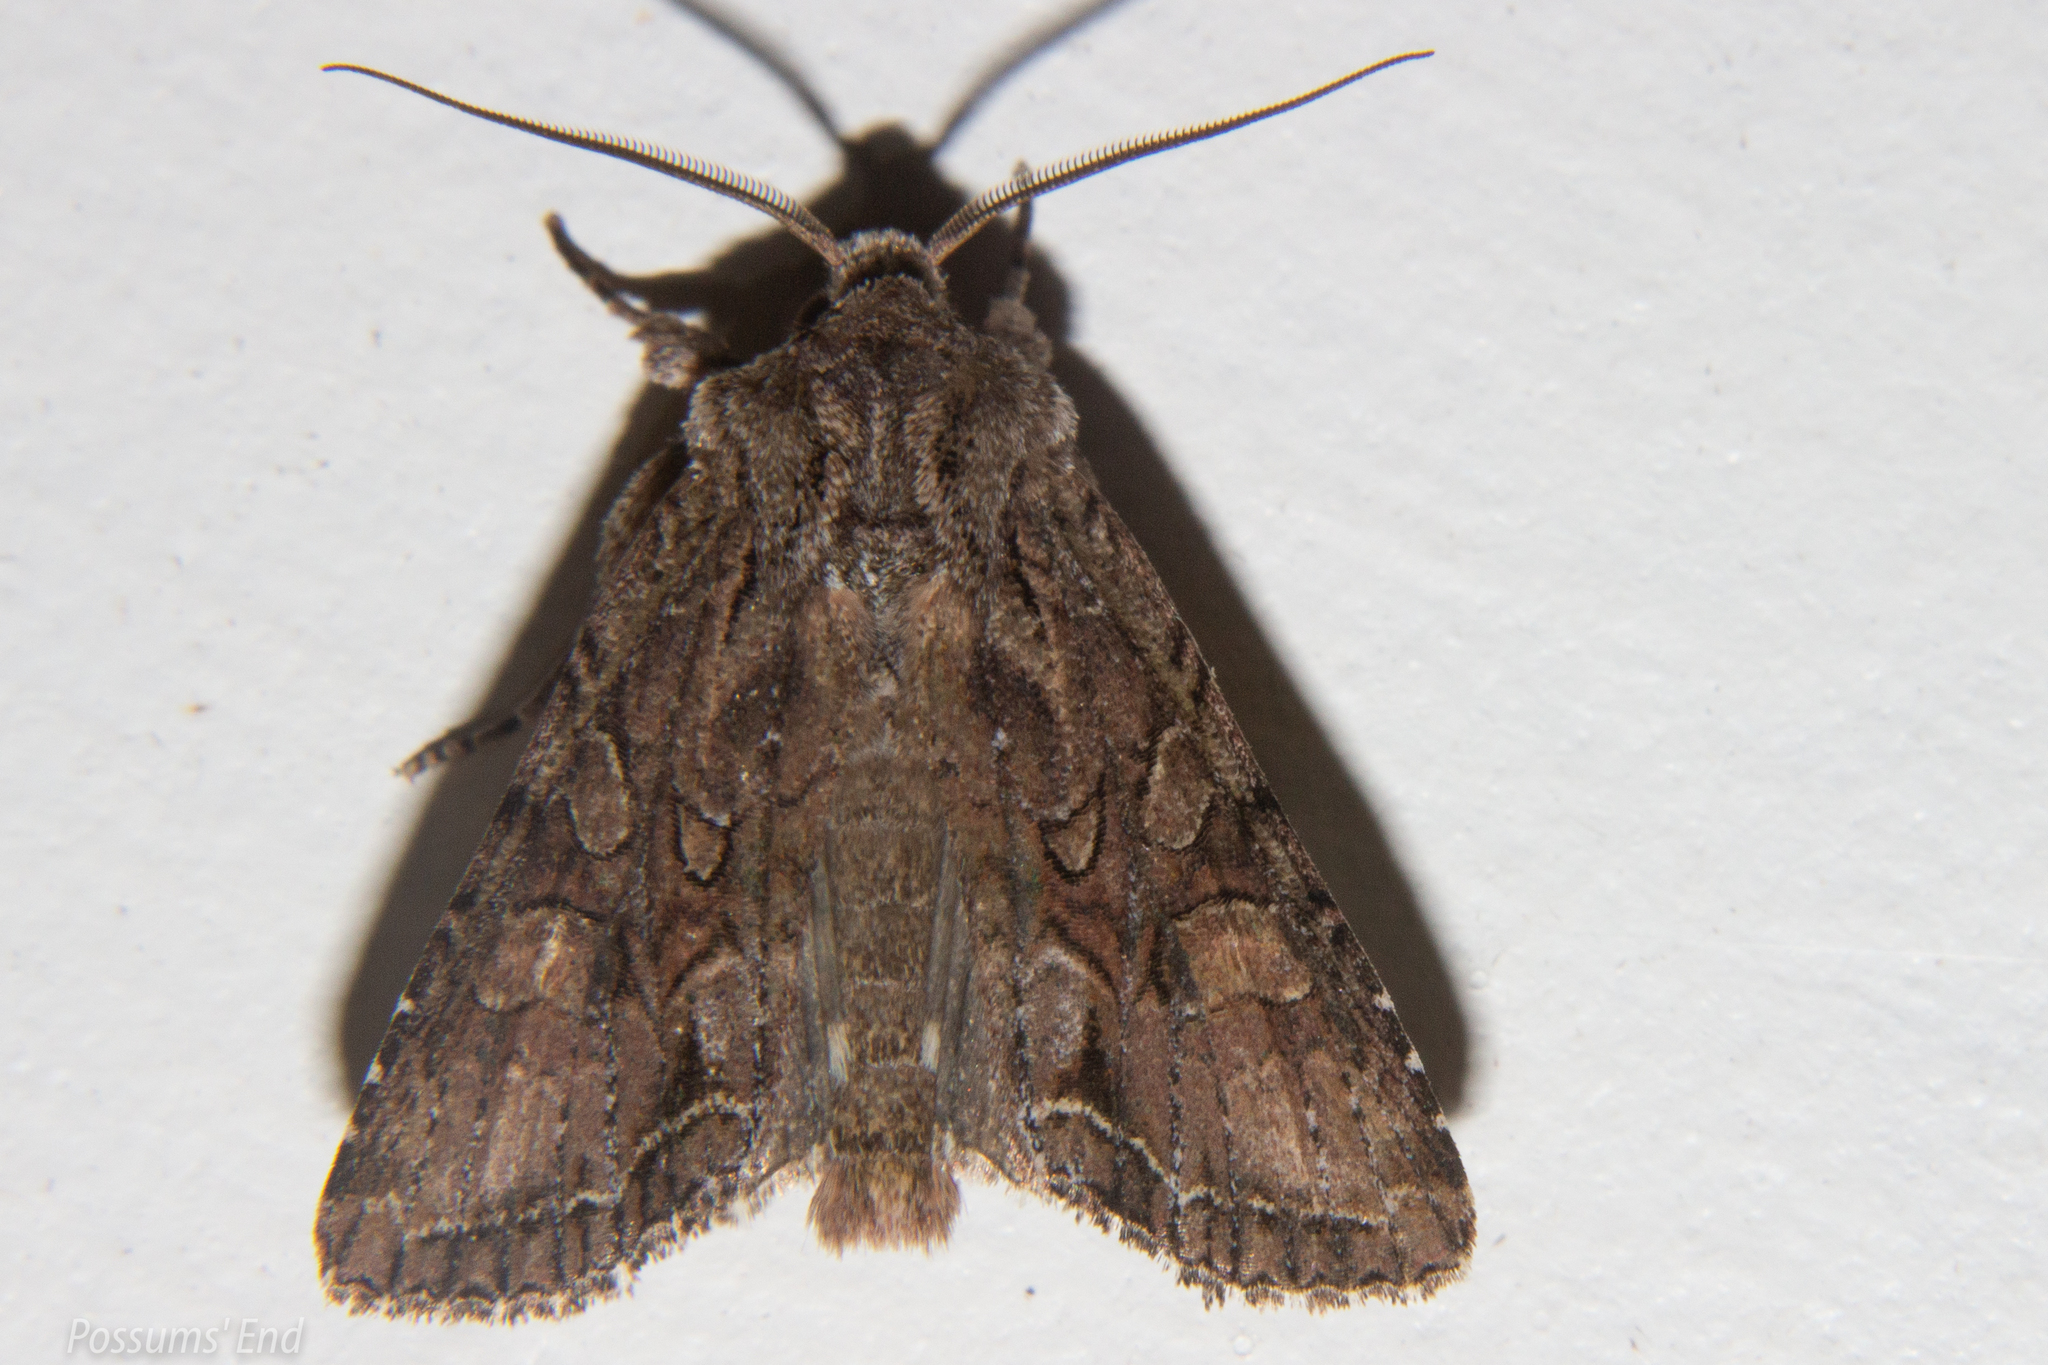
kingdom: Animalia
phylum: Arthropoda
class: Insecta
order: Lepidoptera
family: Noctuidae
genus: Ichneutica
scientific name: Ichneutica mutans
